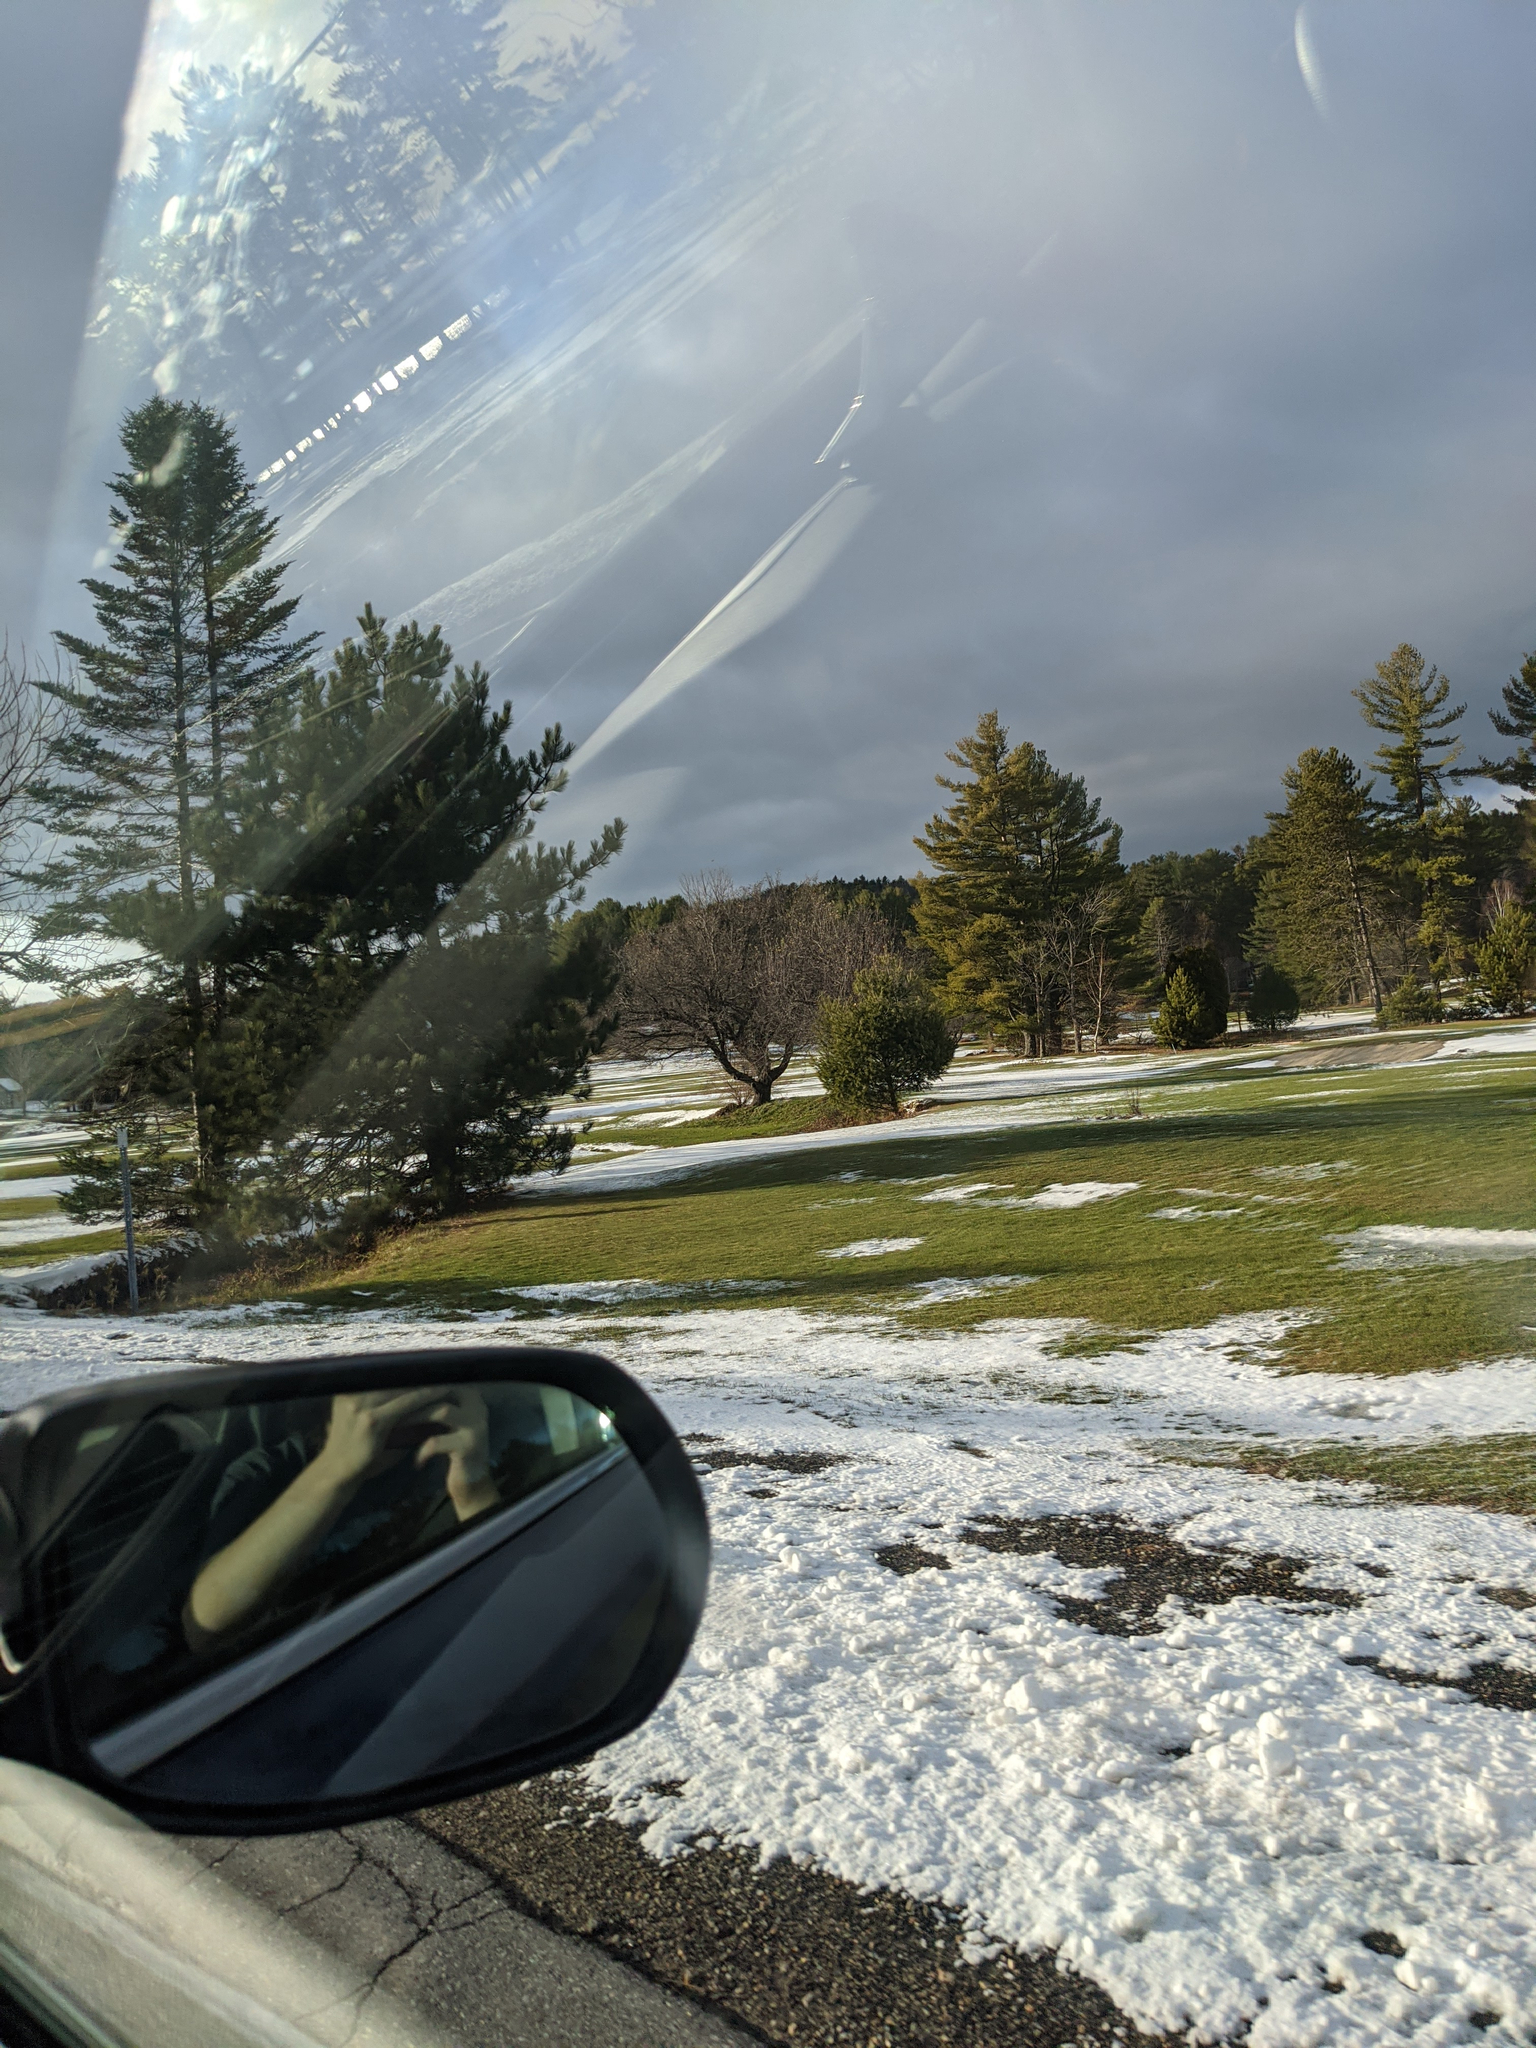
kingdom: Plantae
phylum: Tracheophyta
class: Pinopsida
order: Pinales
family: Pinaceae
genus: Pinus
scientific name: Pinus strobus
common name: Weymouth pine
